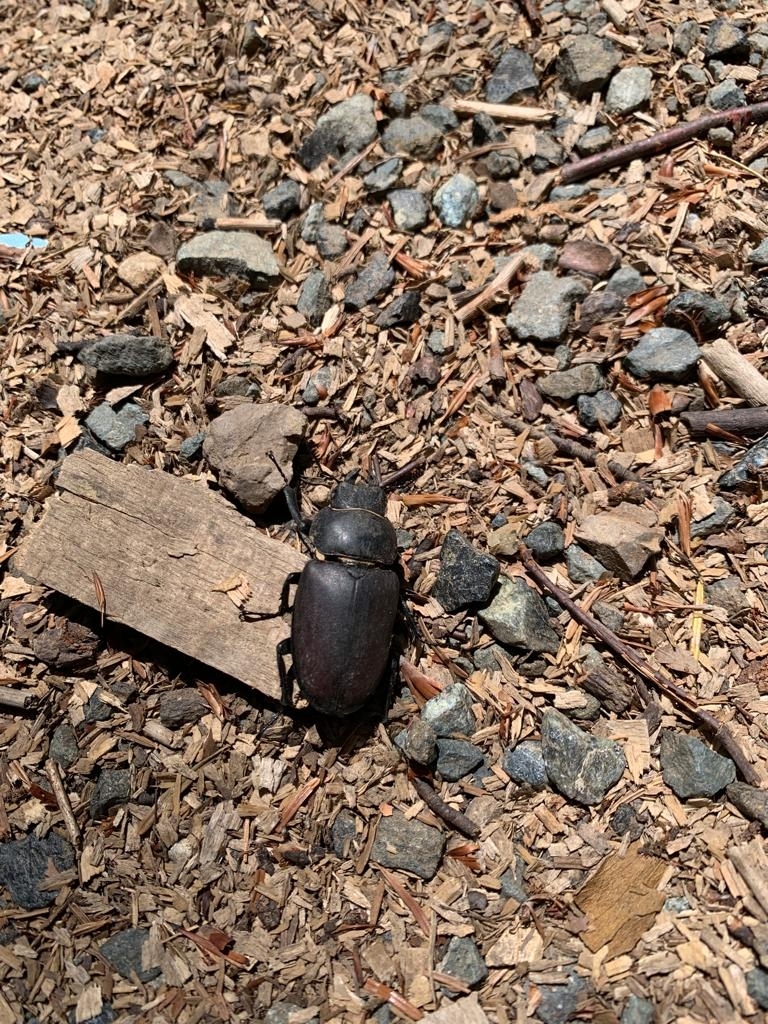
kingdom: Animalia
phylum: Arthropoda
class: Insecta
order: Coleoptera
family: Lucanidae
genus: Lucanus
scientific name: Lucanus cervus
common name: Stag beetle
